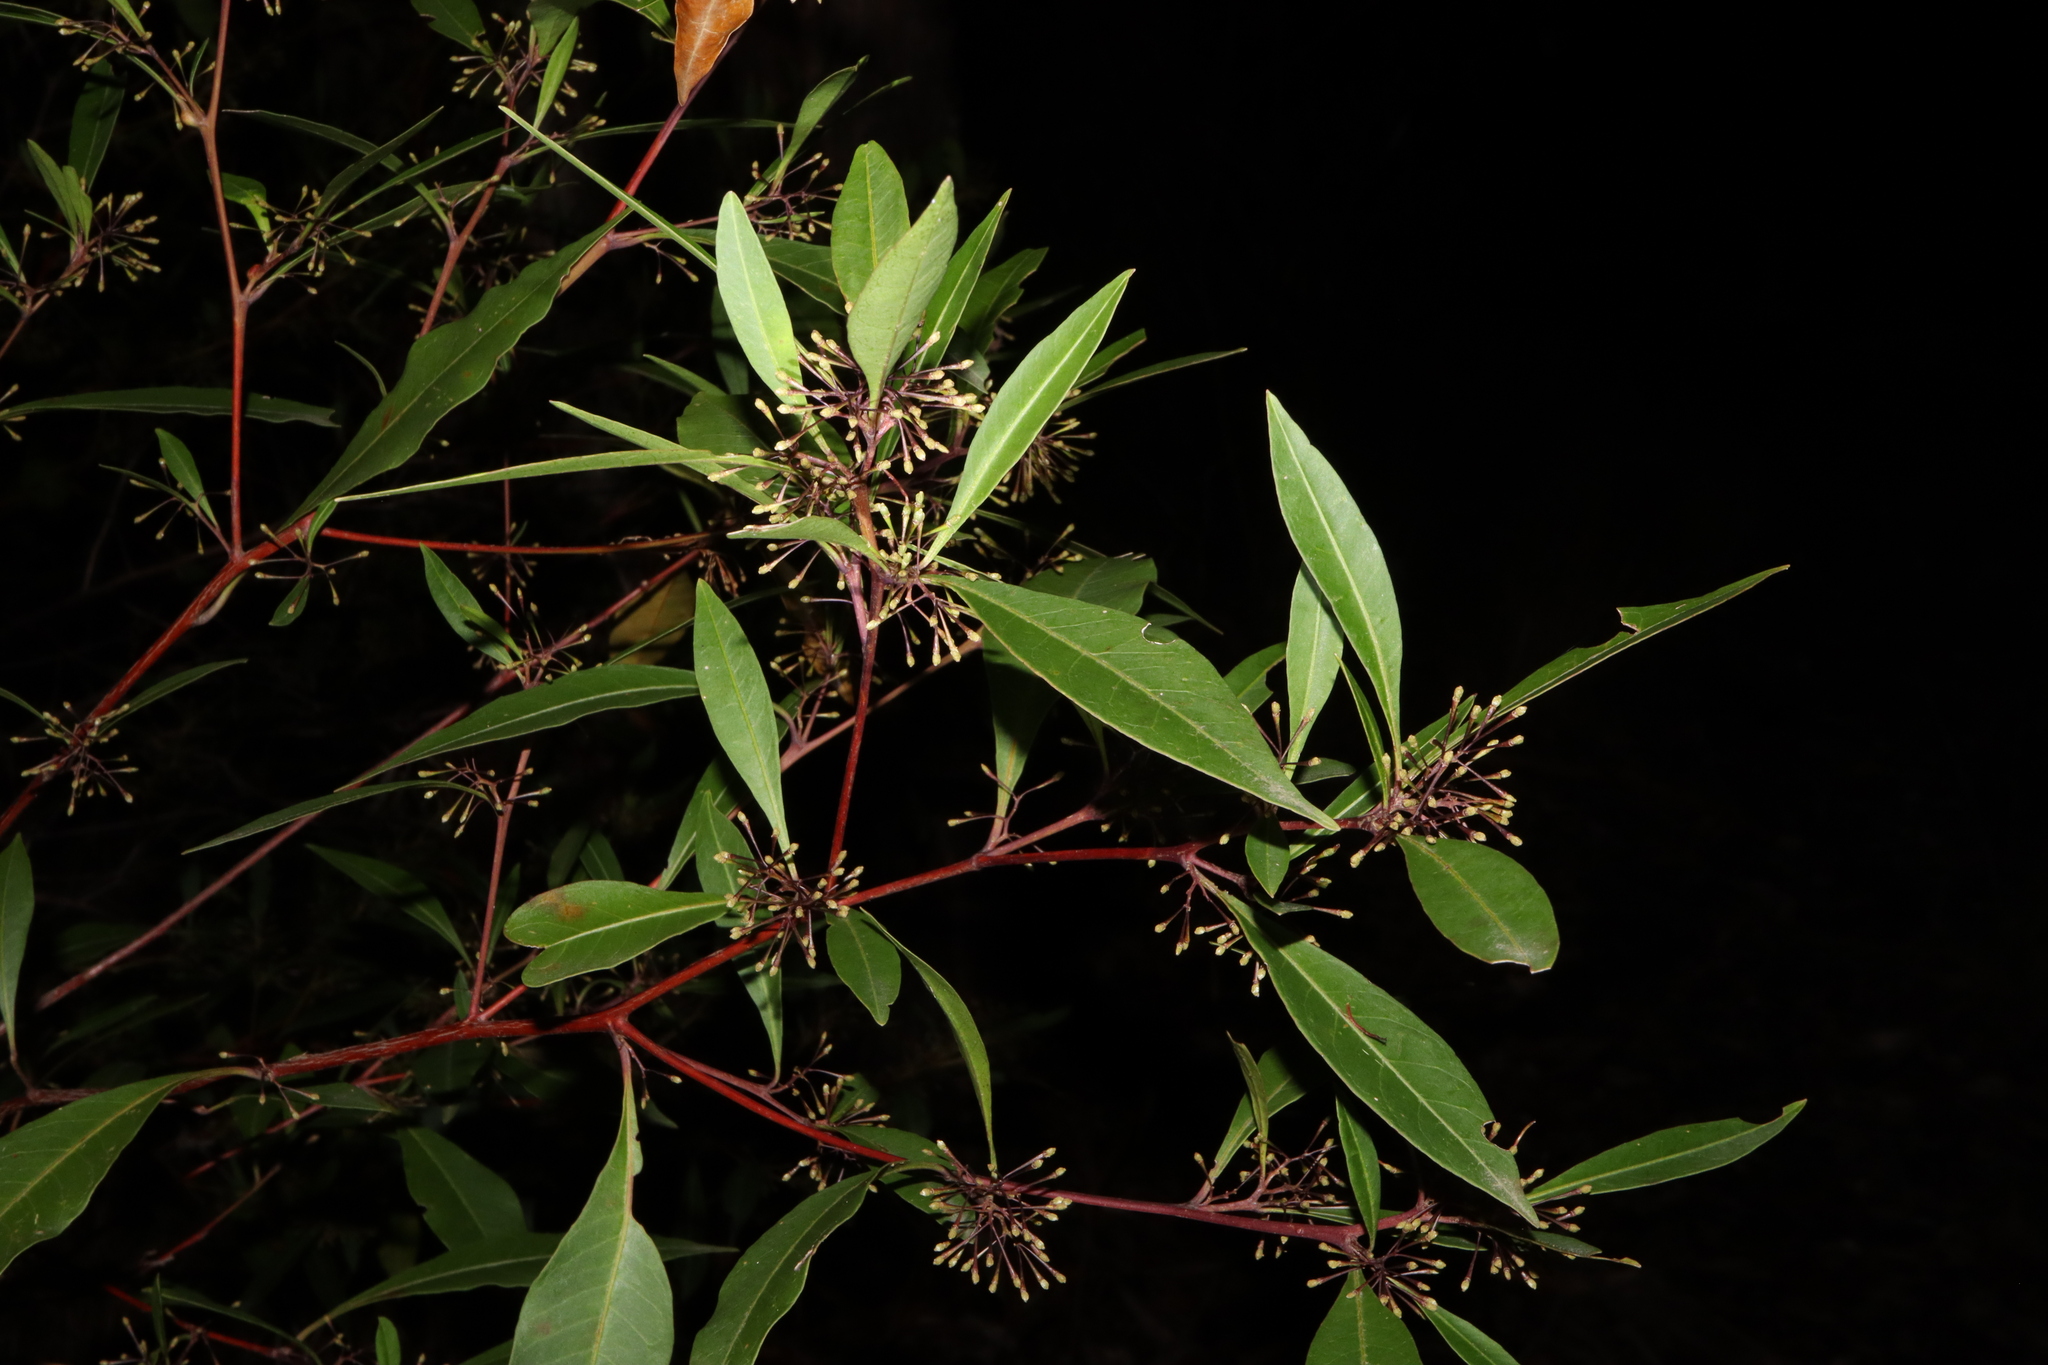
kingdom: Plantae
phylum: Tracheophyta
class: Magnoliopsida
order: Sapindales
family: Sapindaceae
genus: Dodonaea
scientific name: Dodonaea triquetra
